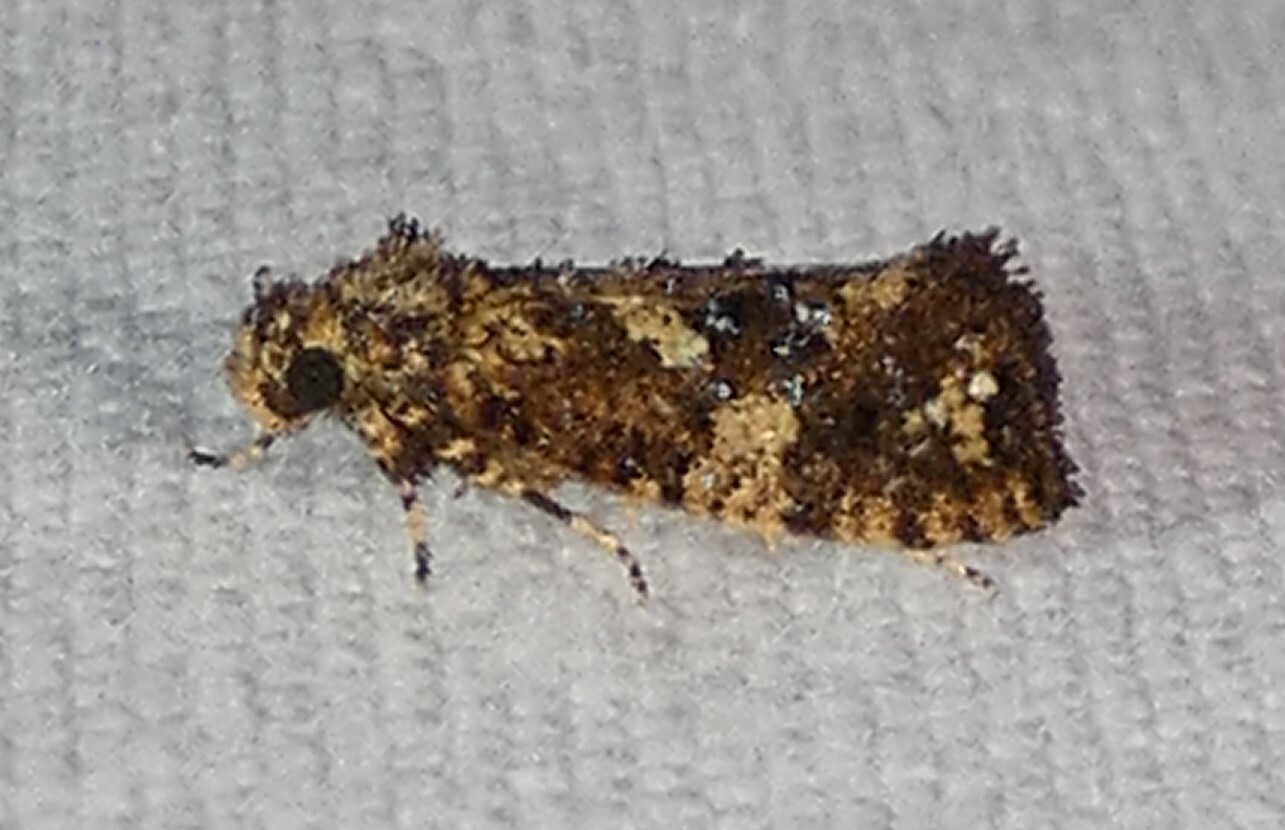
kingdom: Animalia
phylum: Arthropoda
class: Insecta
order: Lepidoptera
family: Tineidae
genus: Acrolophus
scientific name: Acrolophus cressoni
